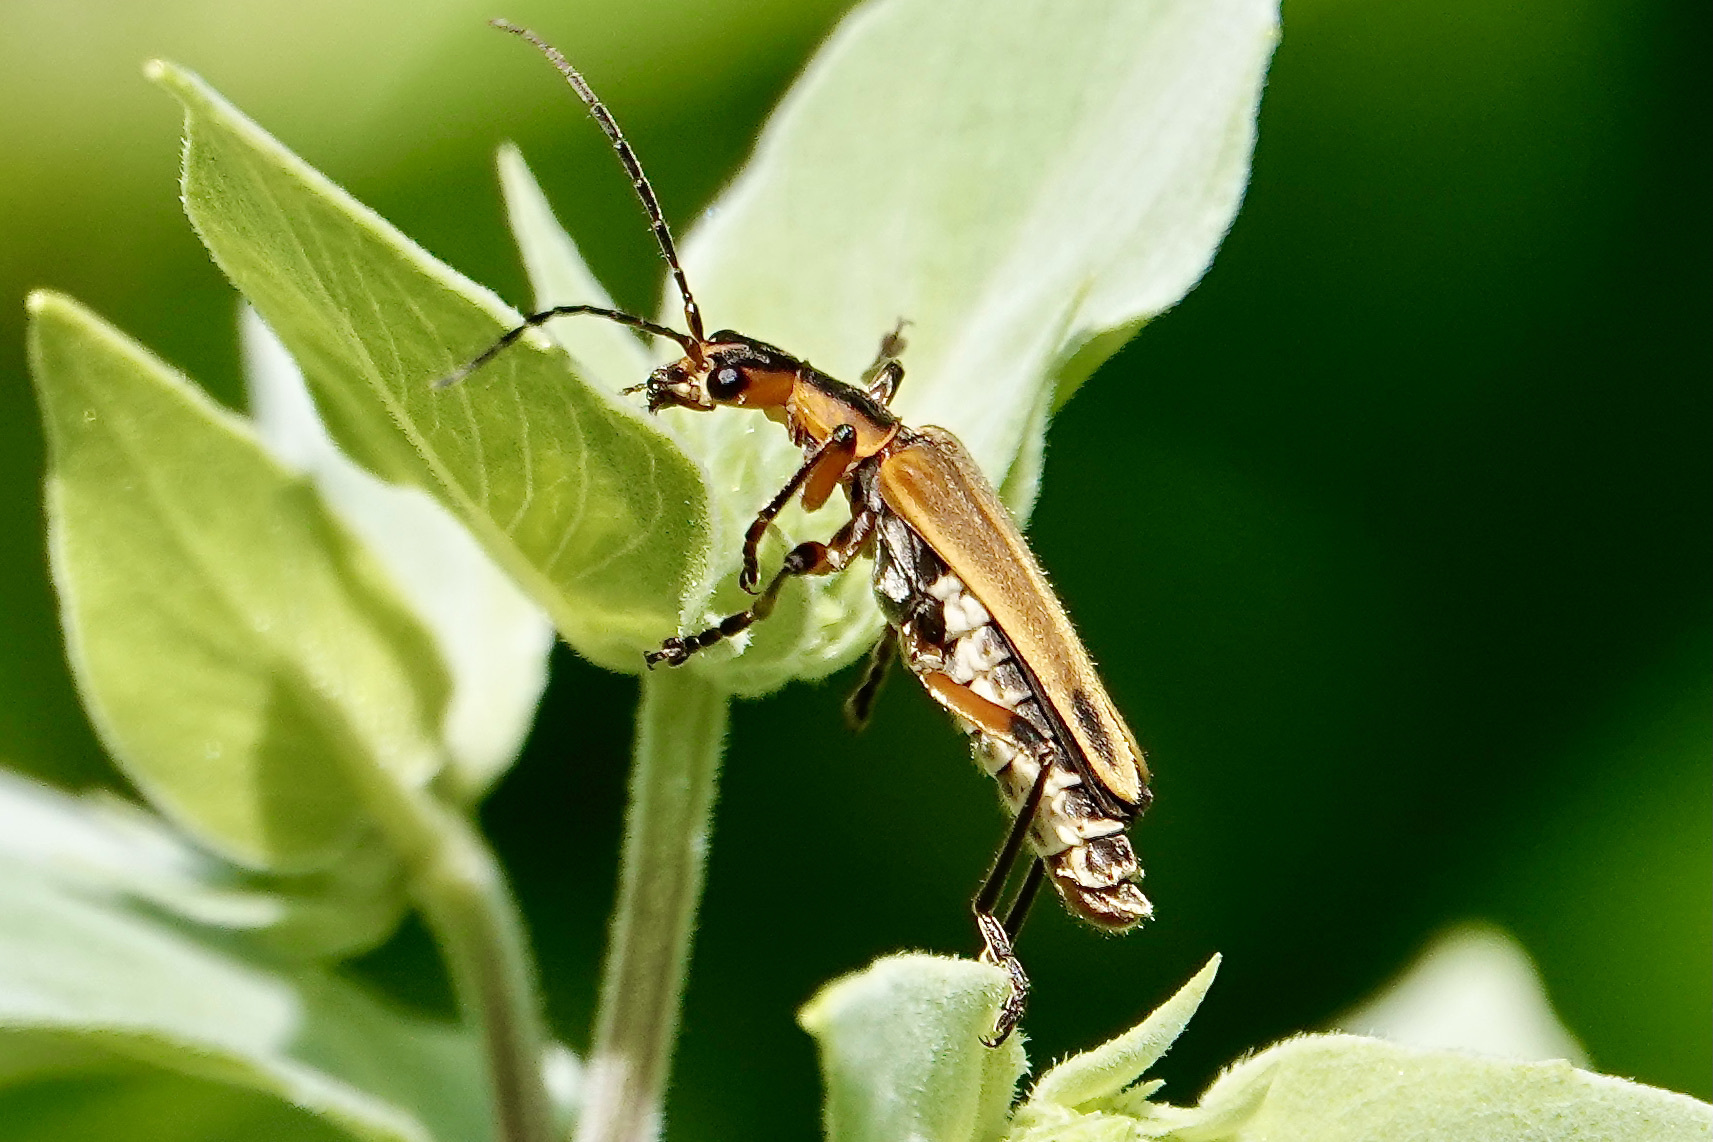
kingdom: Animalia
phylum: Arthropoda
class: Insecta
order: Coleoptera
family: Cantharidae
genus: Chauliognathus
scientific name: Chauliognathus marginatus
